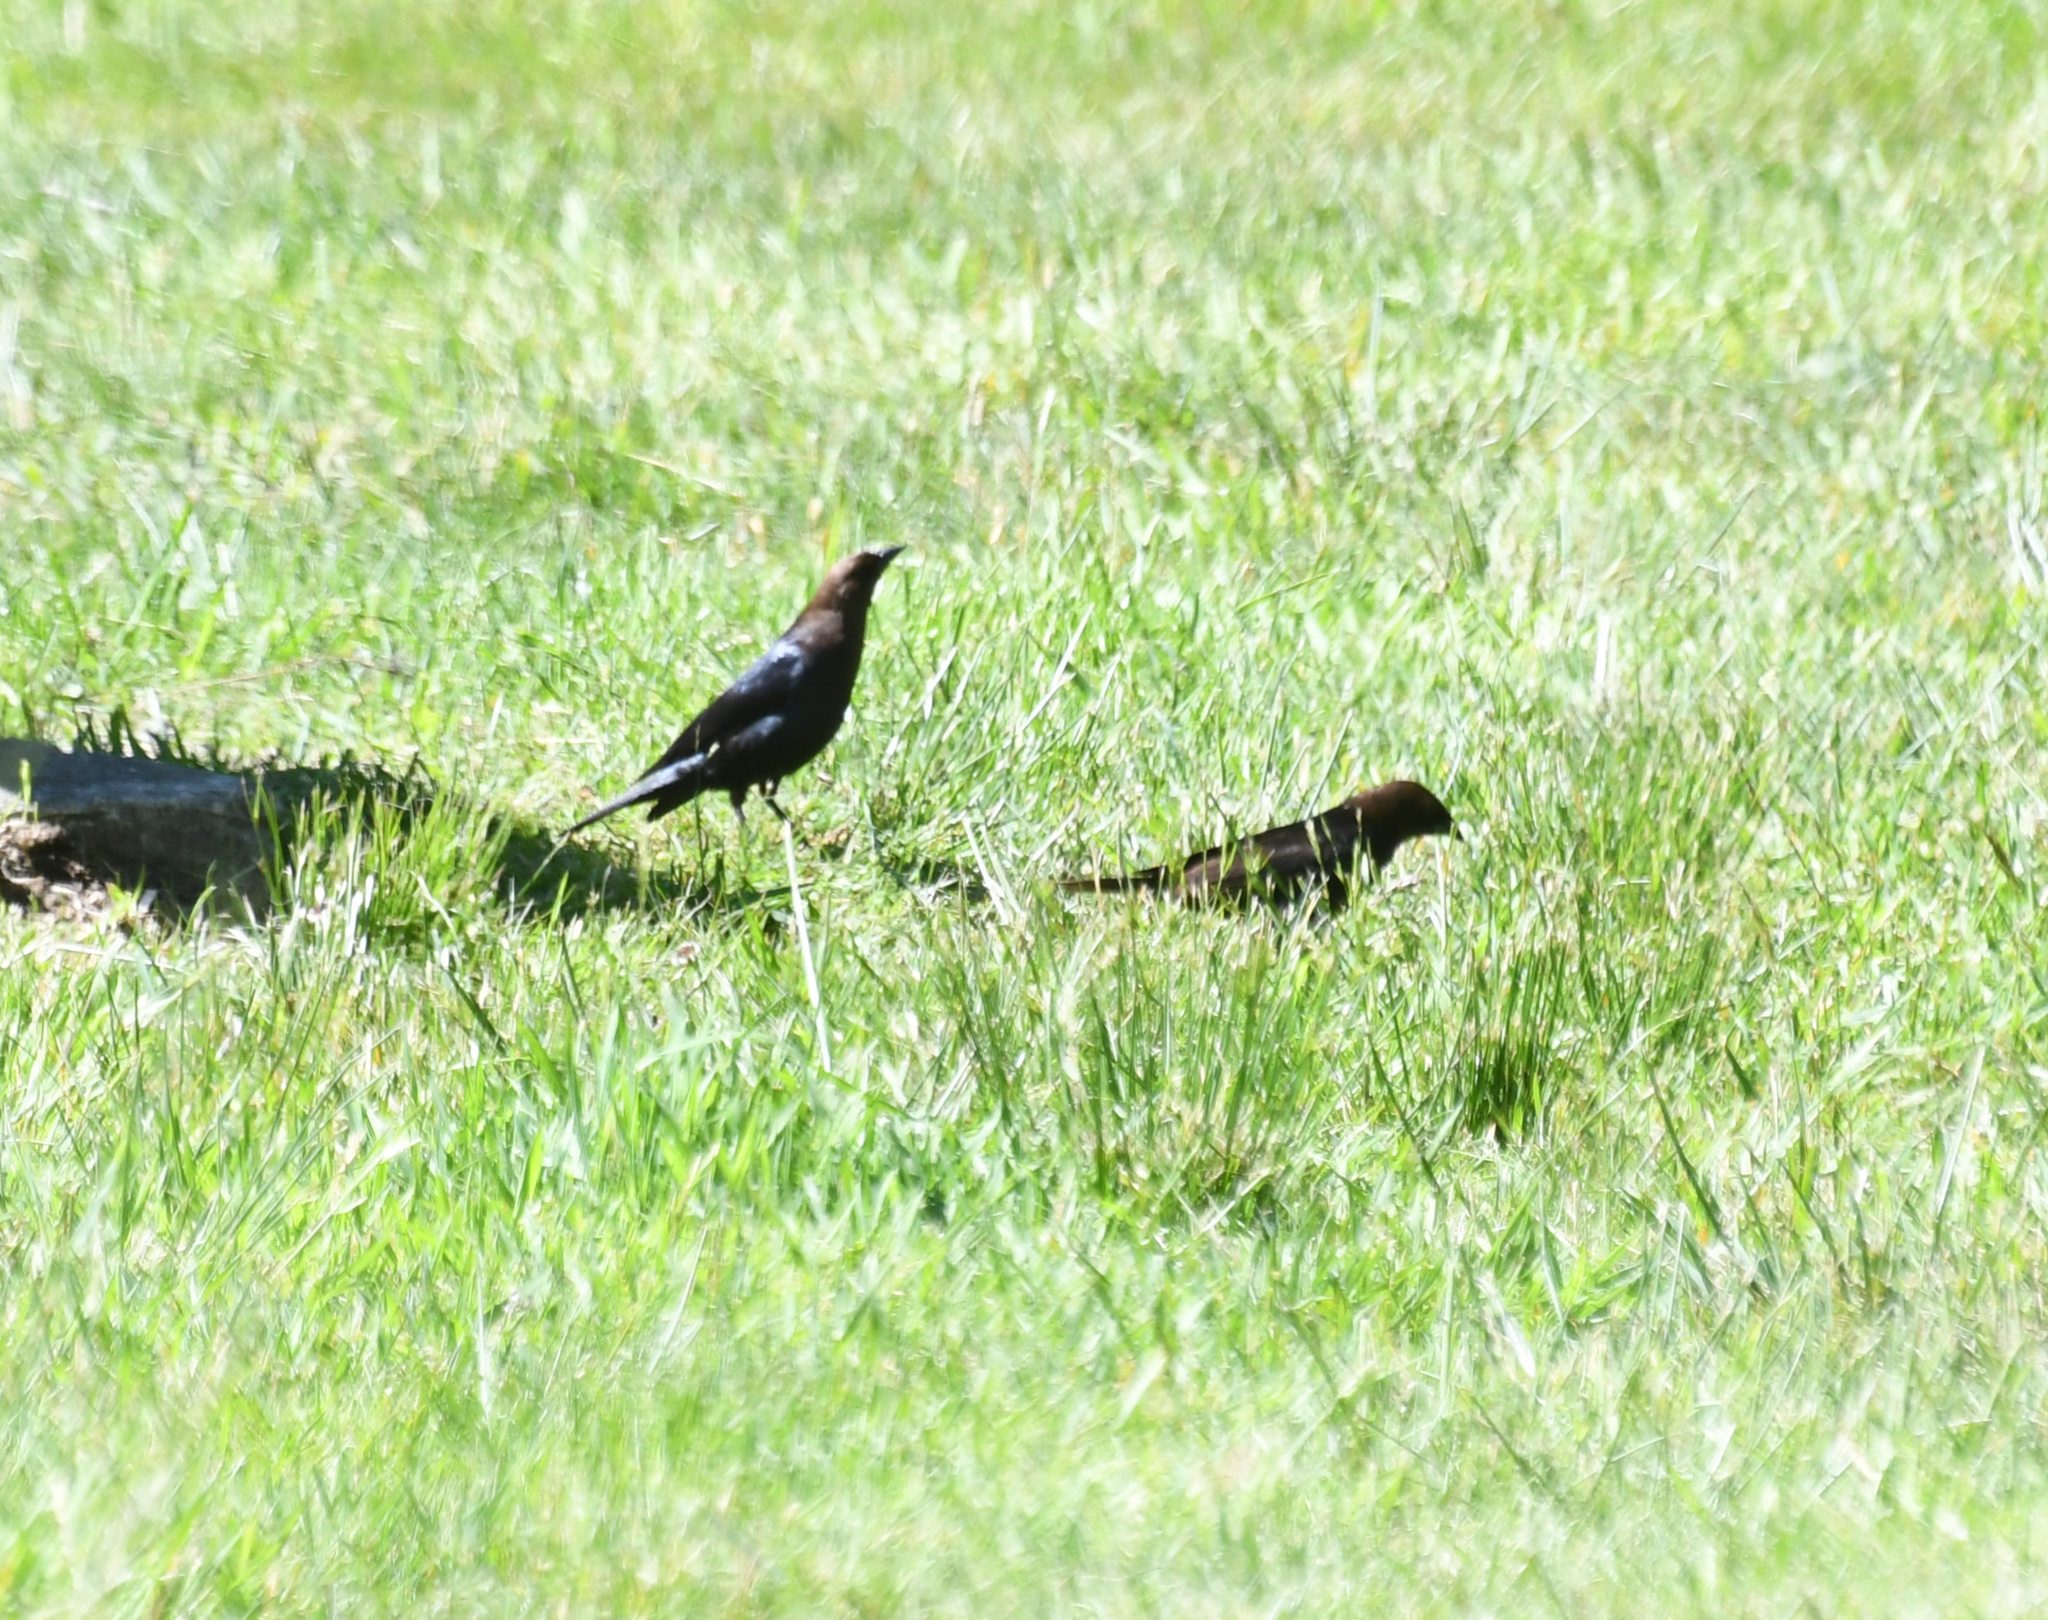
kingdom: Animalia
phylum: Chordata
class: Aves
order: Passeriformes
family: Icteridae
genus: Molothrus
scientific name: Molothrus ater
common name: Brown-headed cowbird
